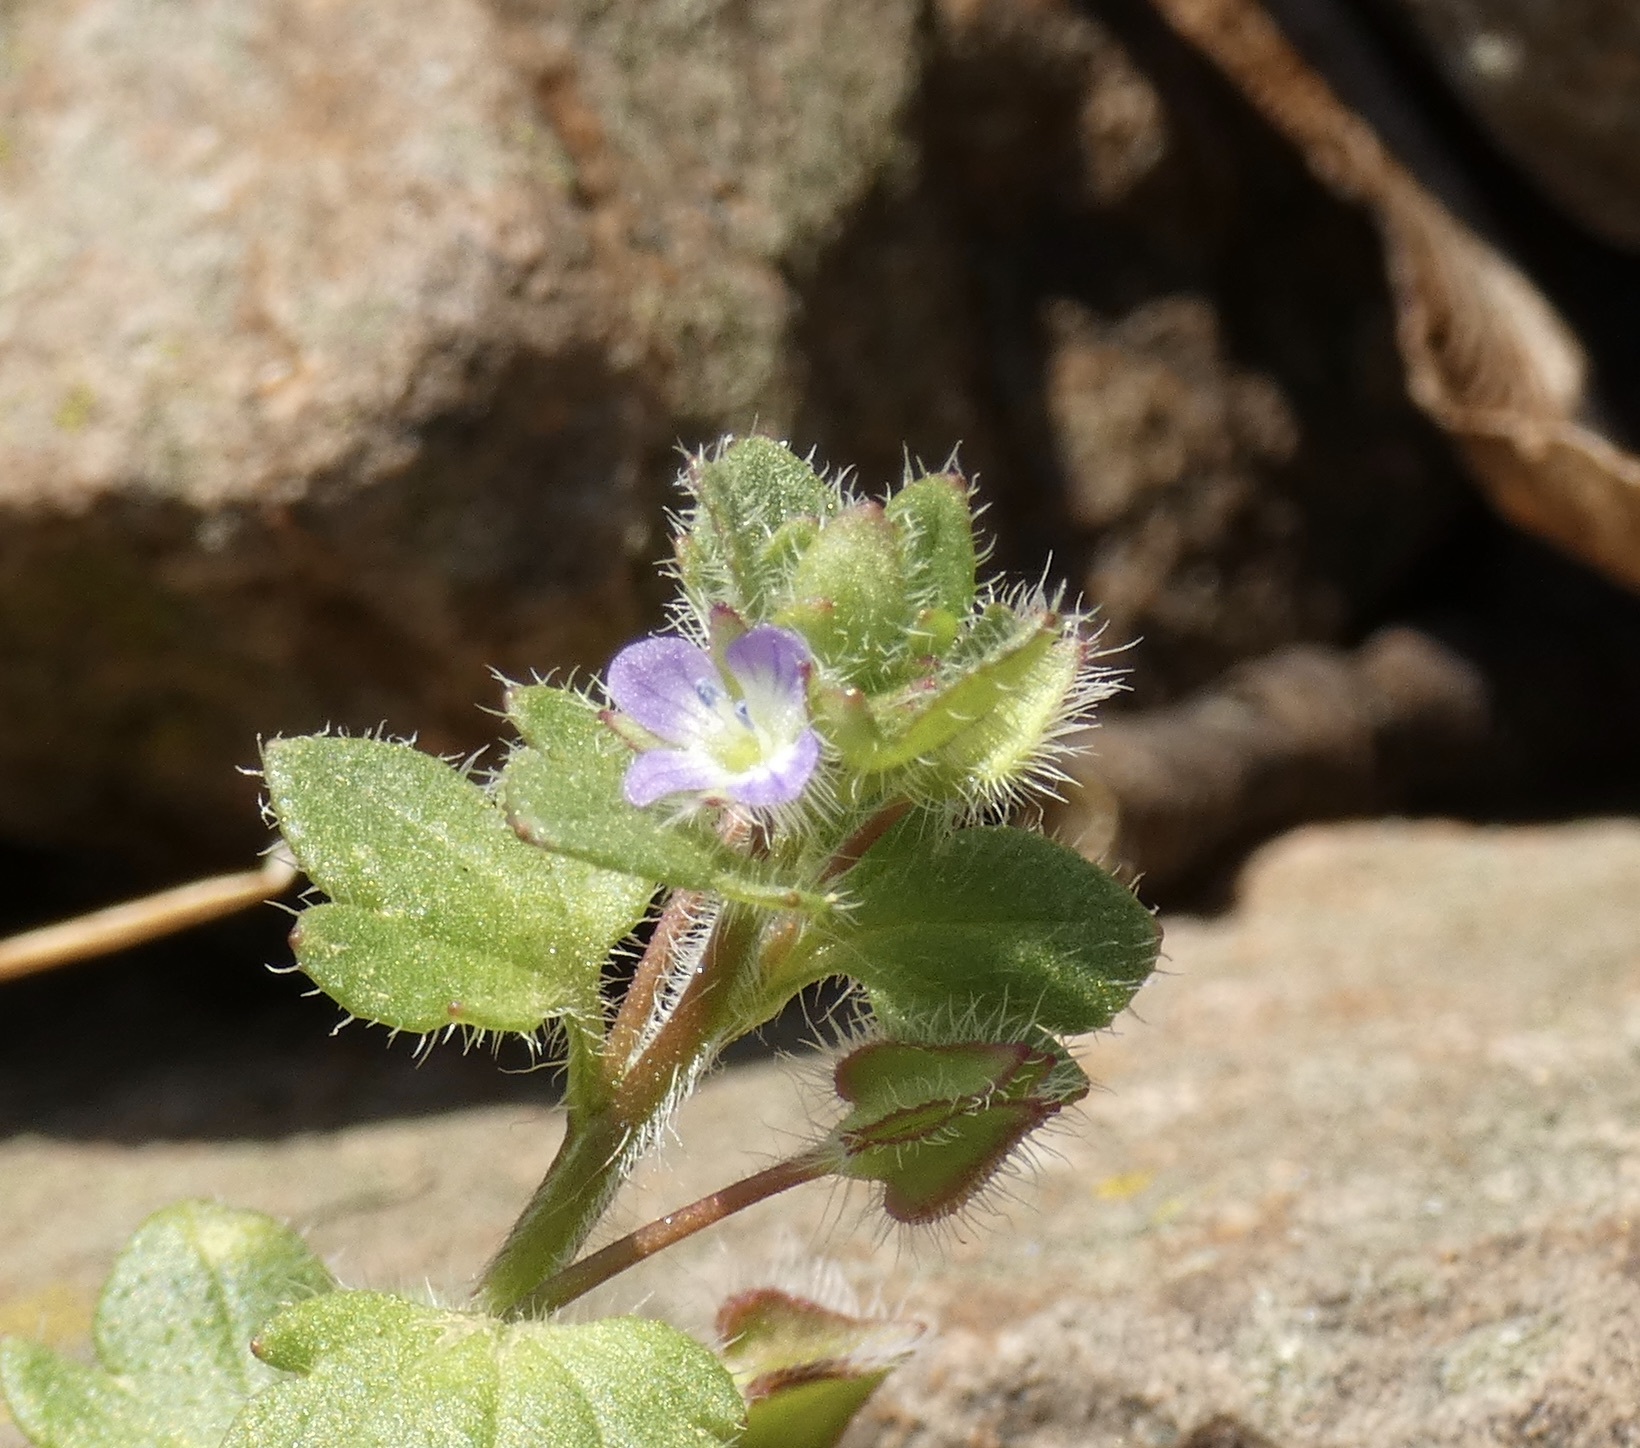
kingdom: Plantae
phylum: Tracheophyta
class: Magnoliopsida
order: Lamiales
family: Plantaginaceae
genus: Veronica
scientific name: Veronica hederifolia
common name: Ivy-leaved speedwell
